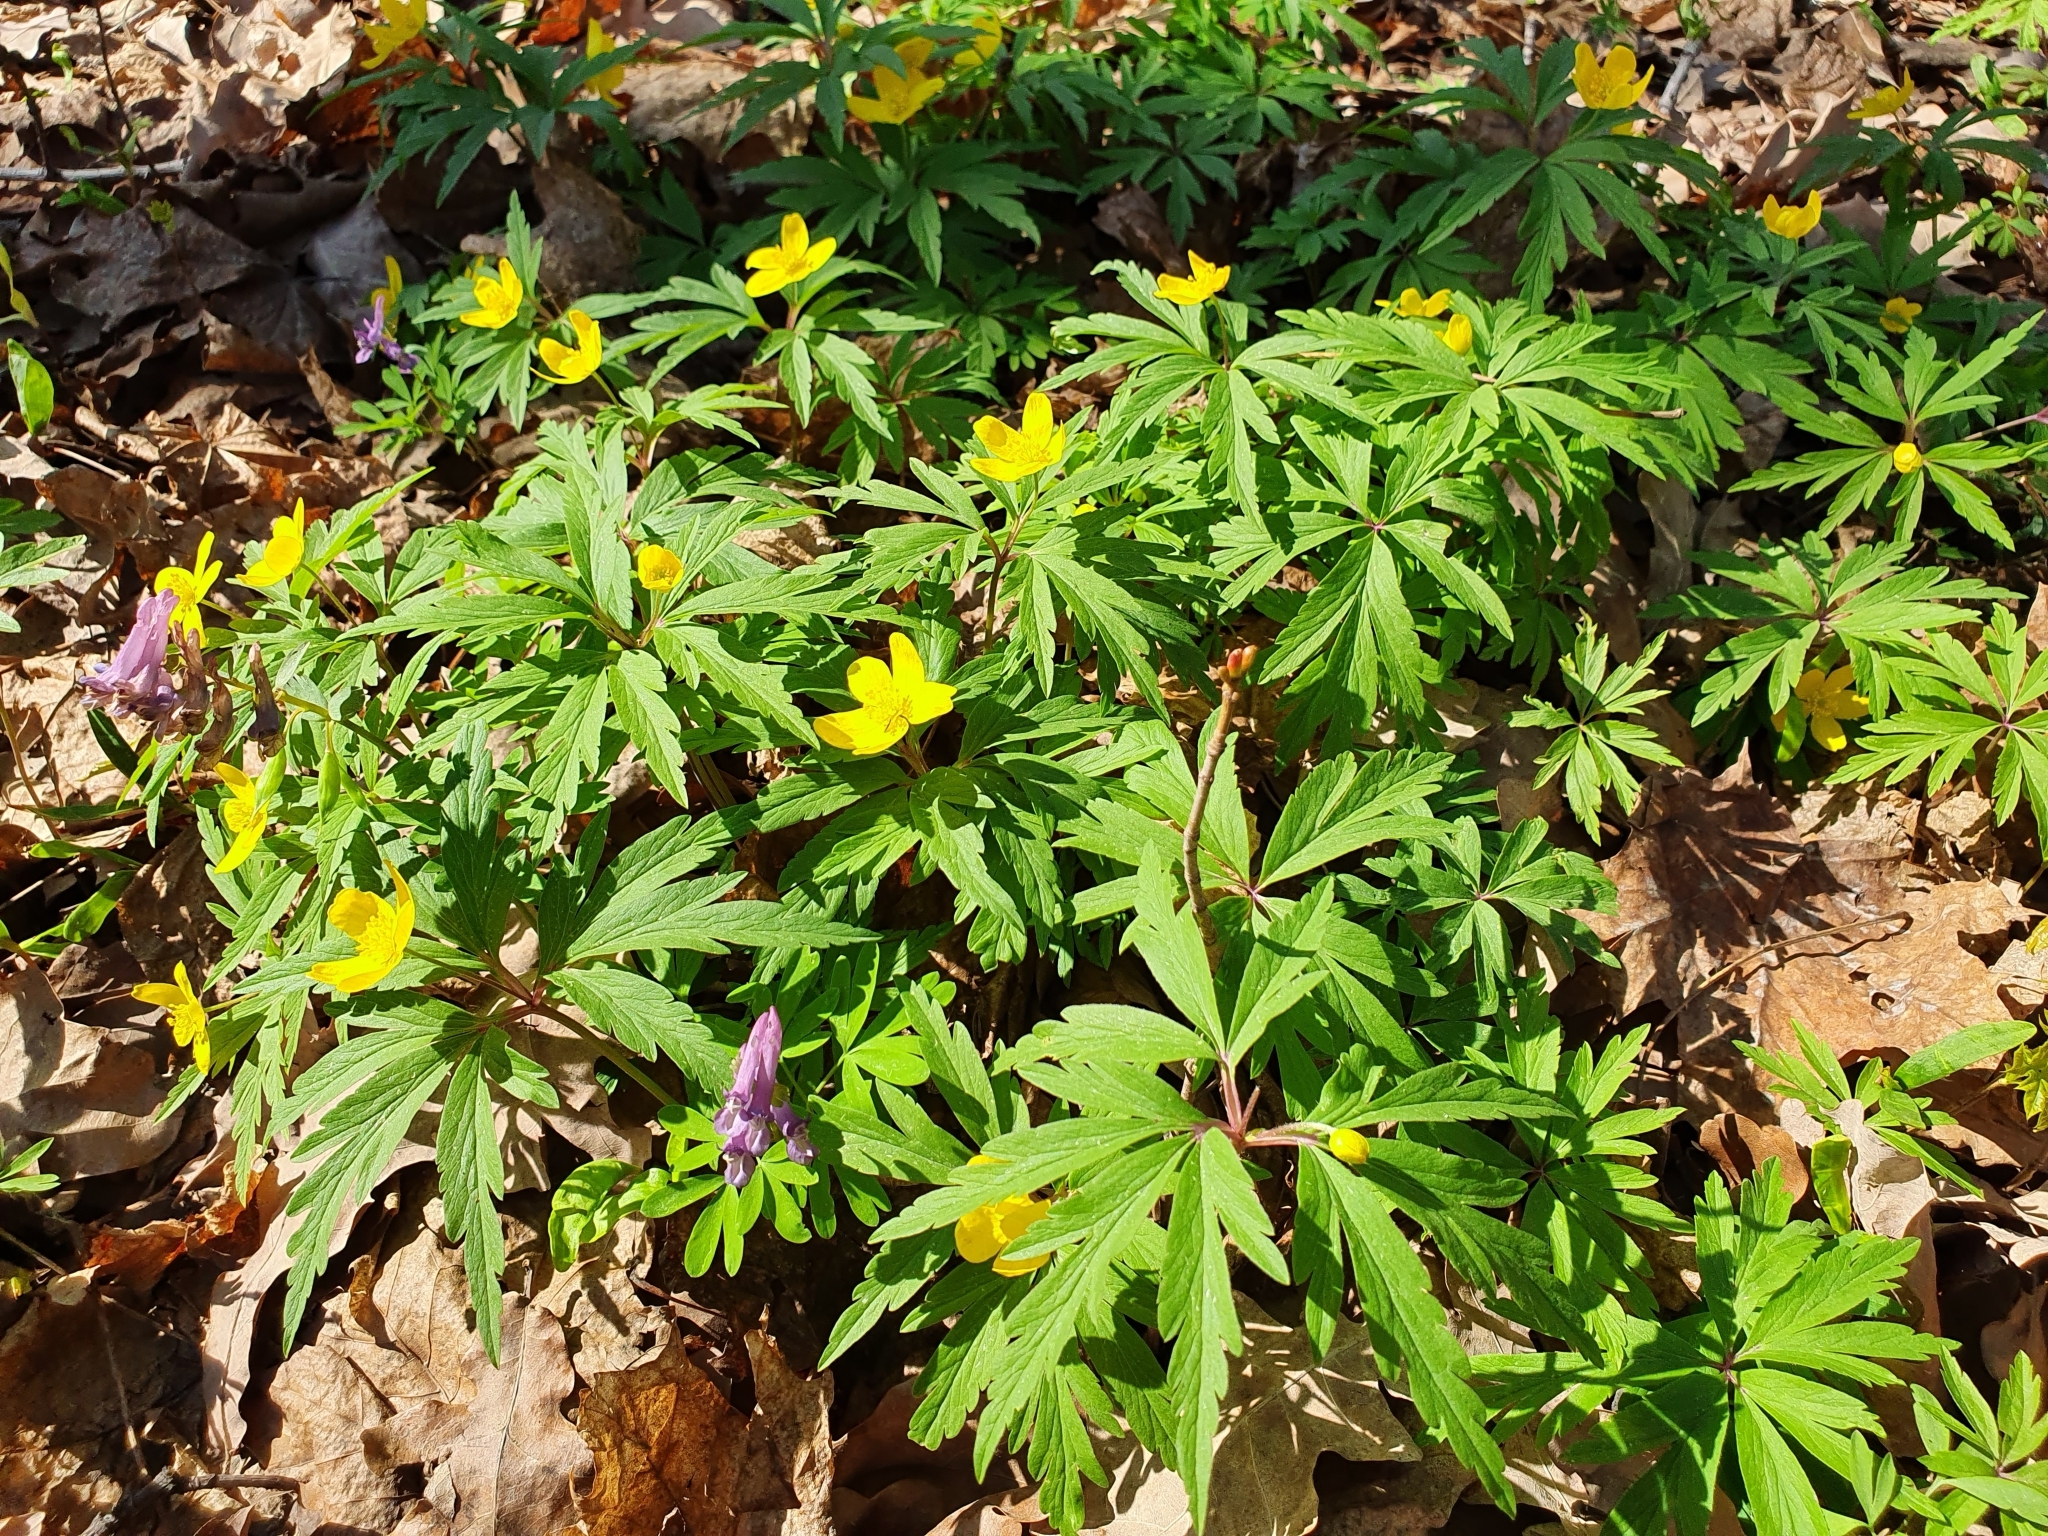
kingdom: Plantae
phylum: Tracheophyta
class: Magnoliopsida
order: Ranunculales
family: Ranunculaceae
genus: Anemone
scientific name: Anemone ranunculoides
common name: Yellow anemone
